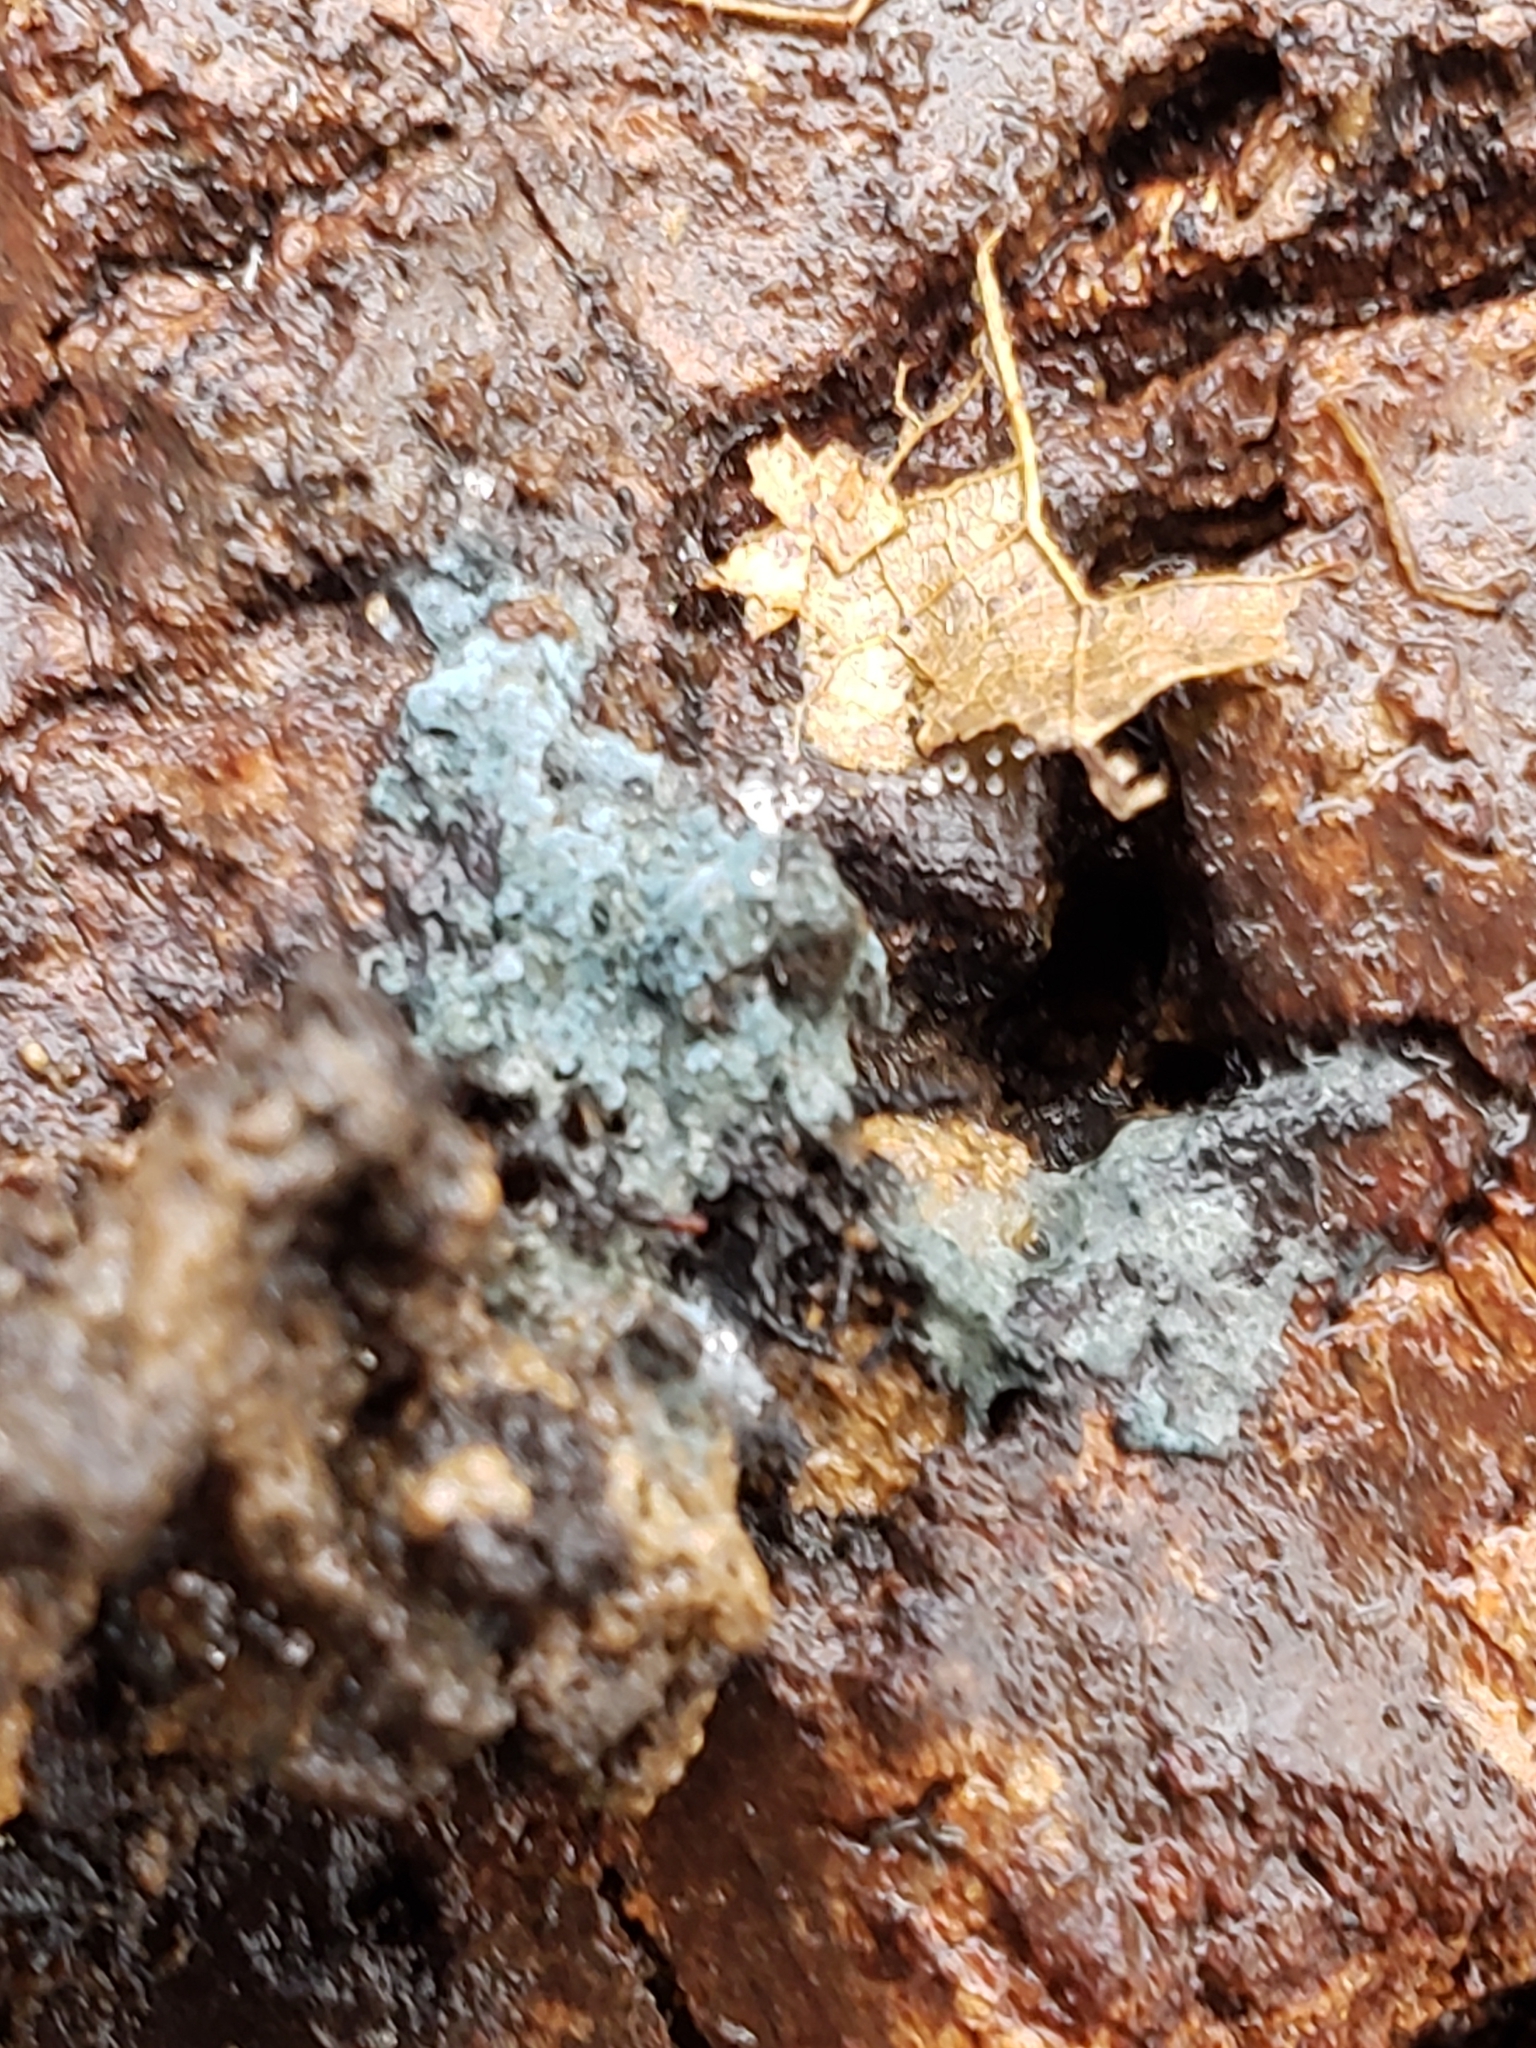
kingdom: Fungi
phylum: Basidiomycota
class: Agaricomycetes
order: Atheliales
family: Atheliaceae
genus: Byssocorticium
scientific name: Byssocorticium atrovirens
